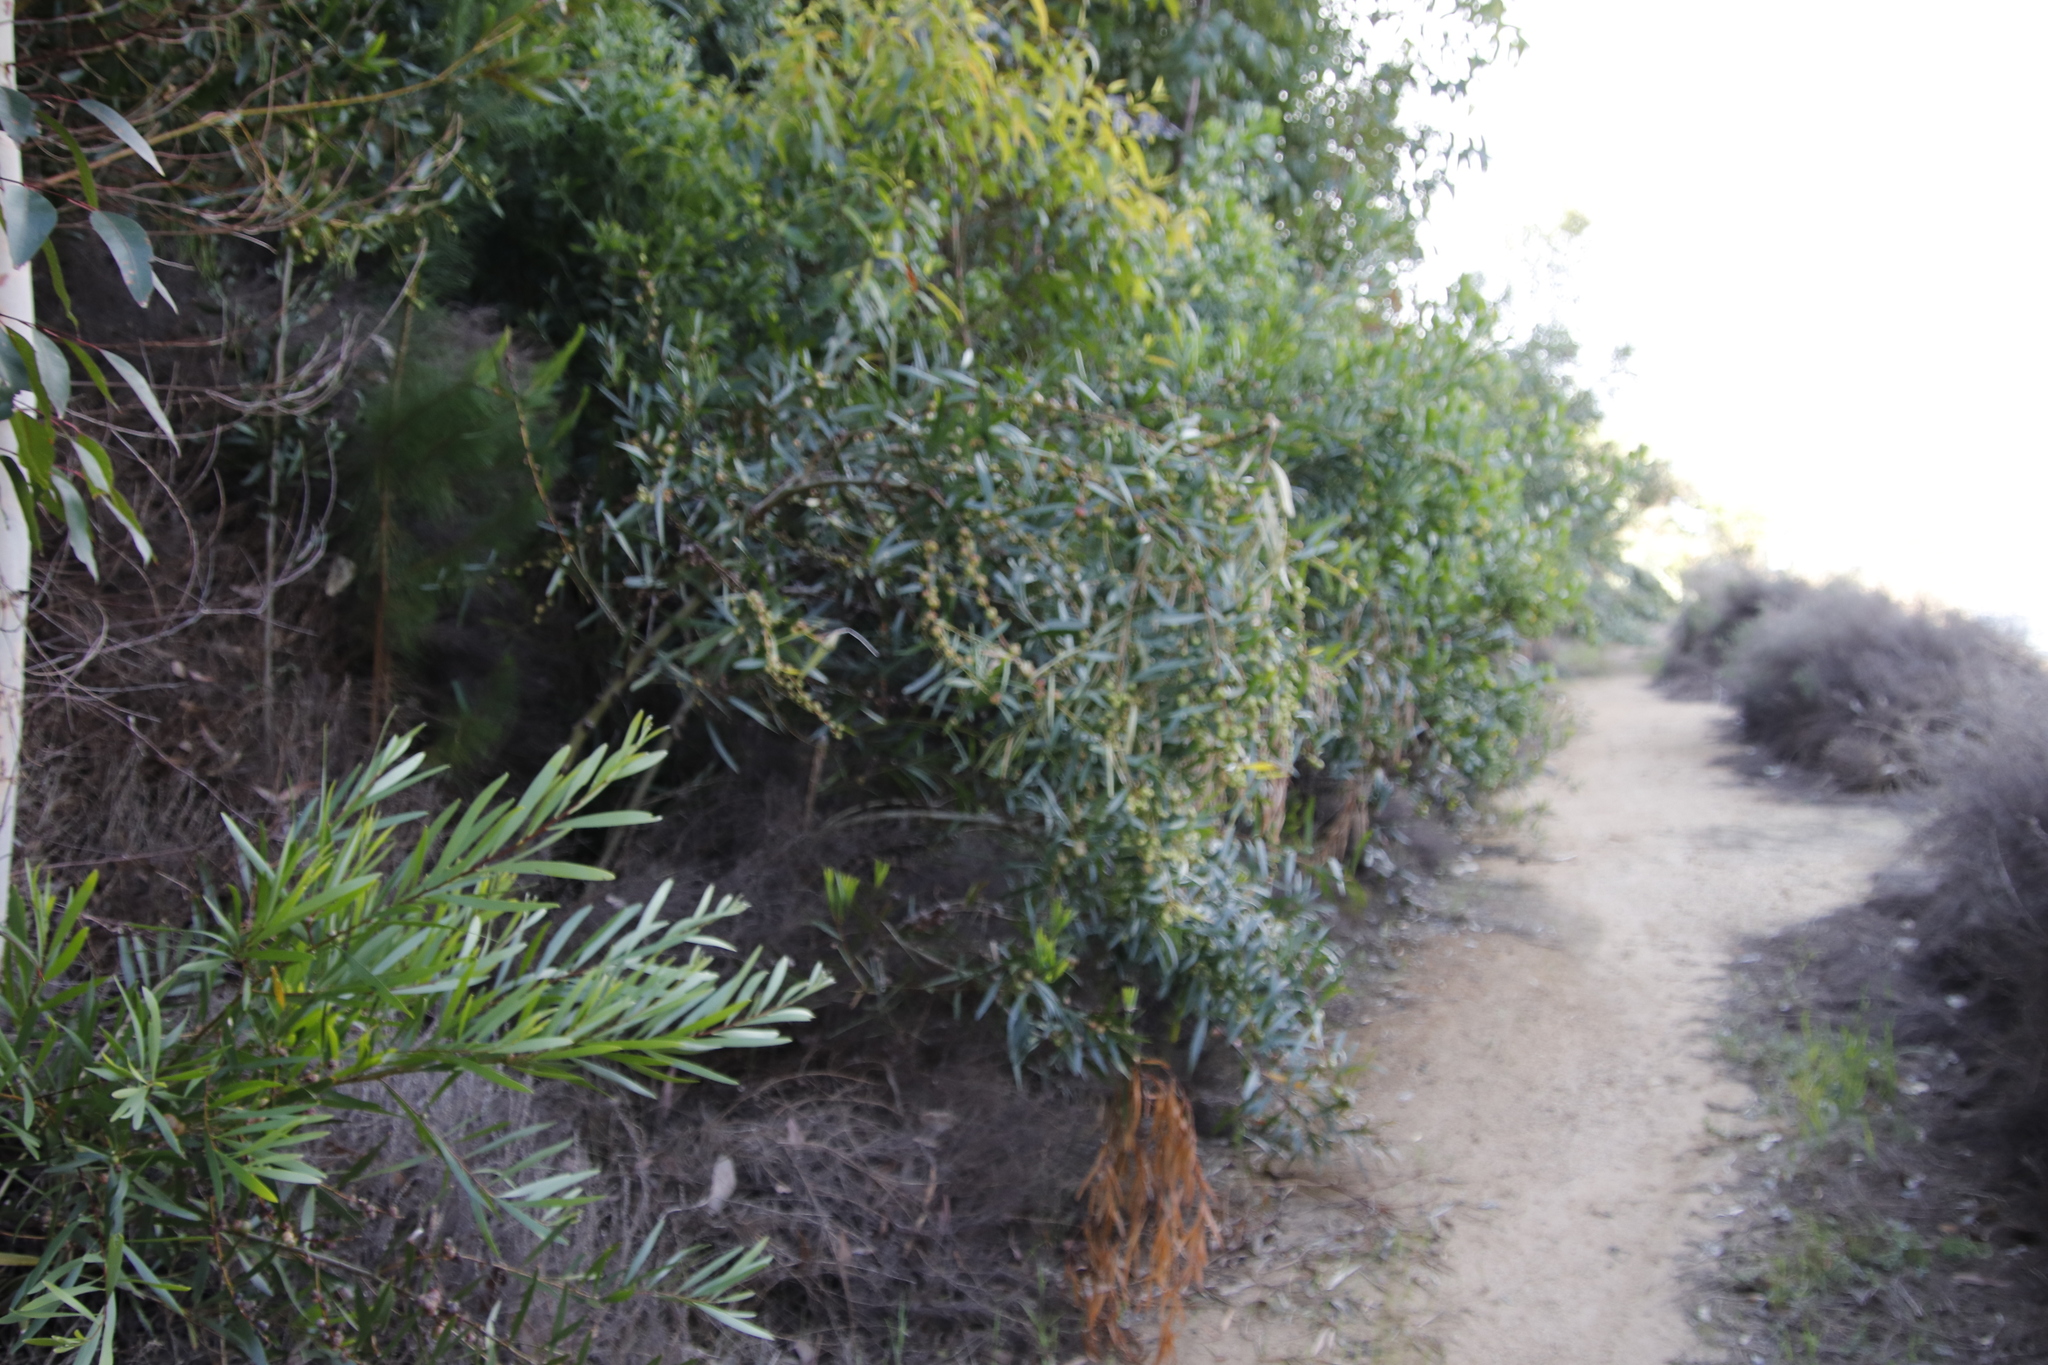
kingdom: Plantae
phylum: Tracheophyta
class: Magnoliopsida
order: Fabales
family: Fabaceae
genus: Acacia
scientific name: Acacia longifolia
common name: Sydney golden wattle
